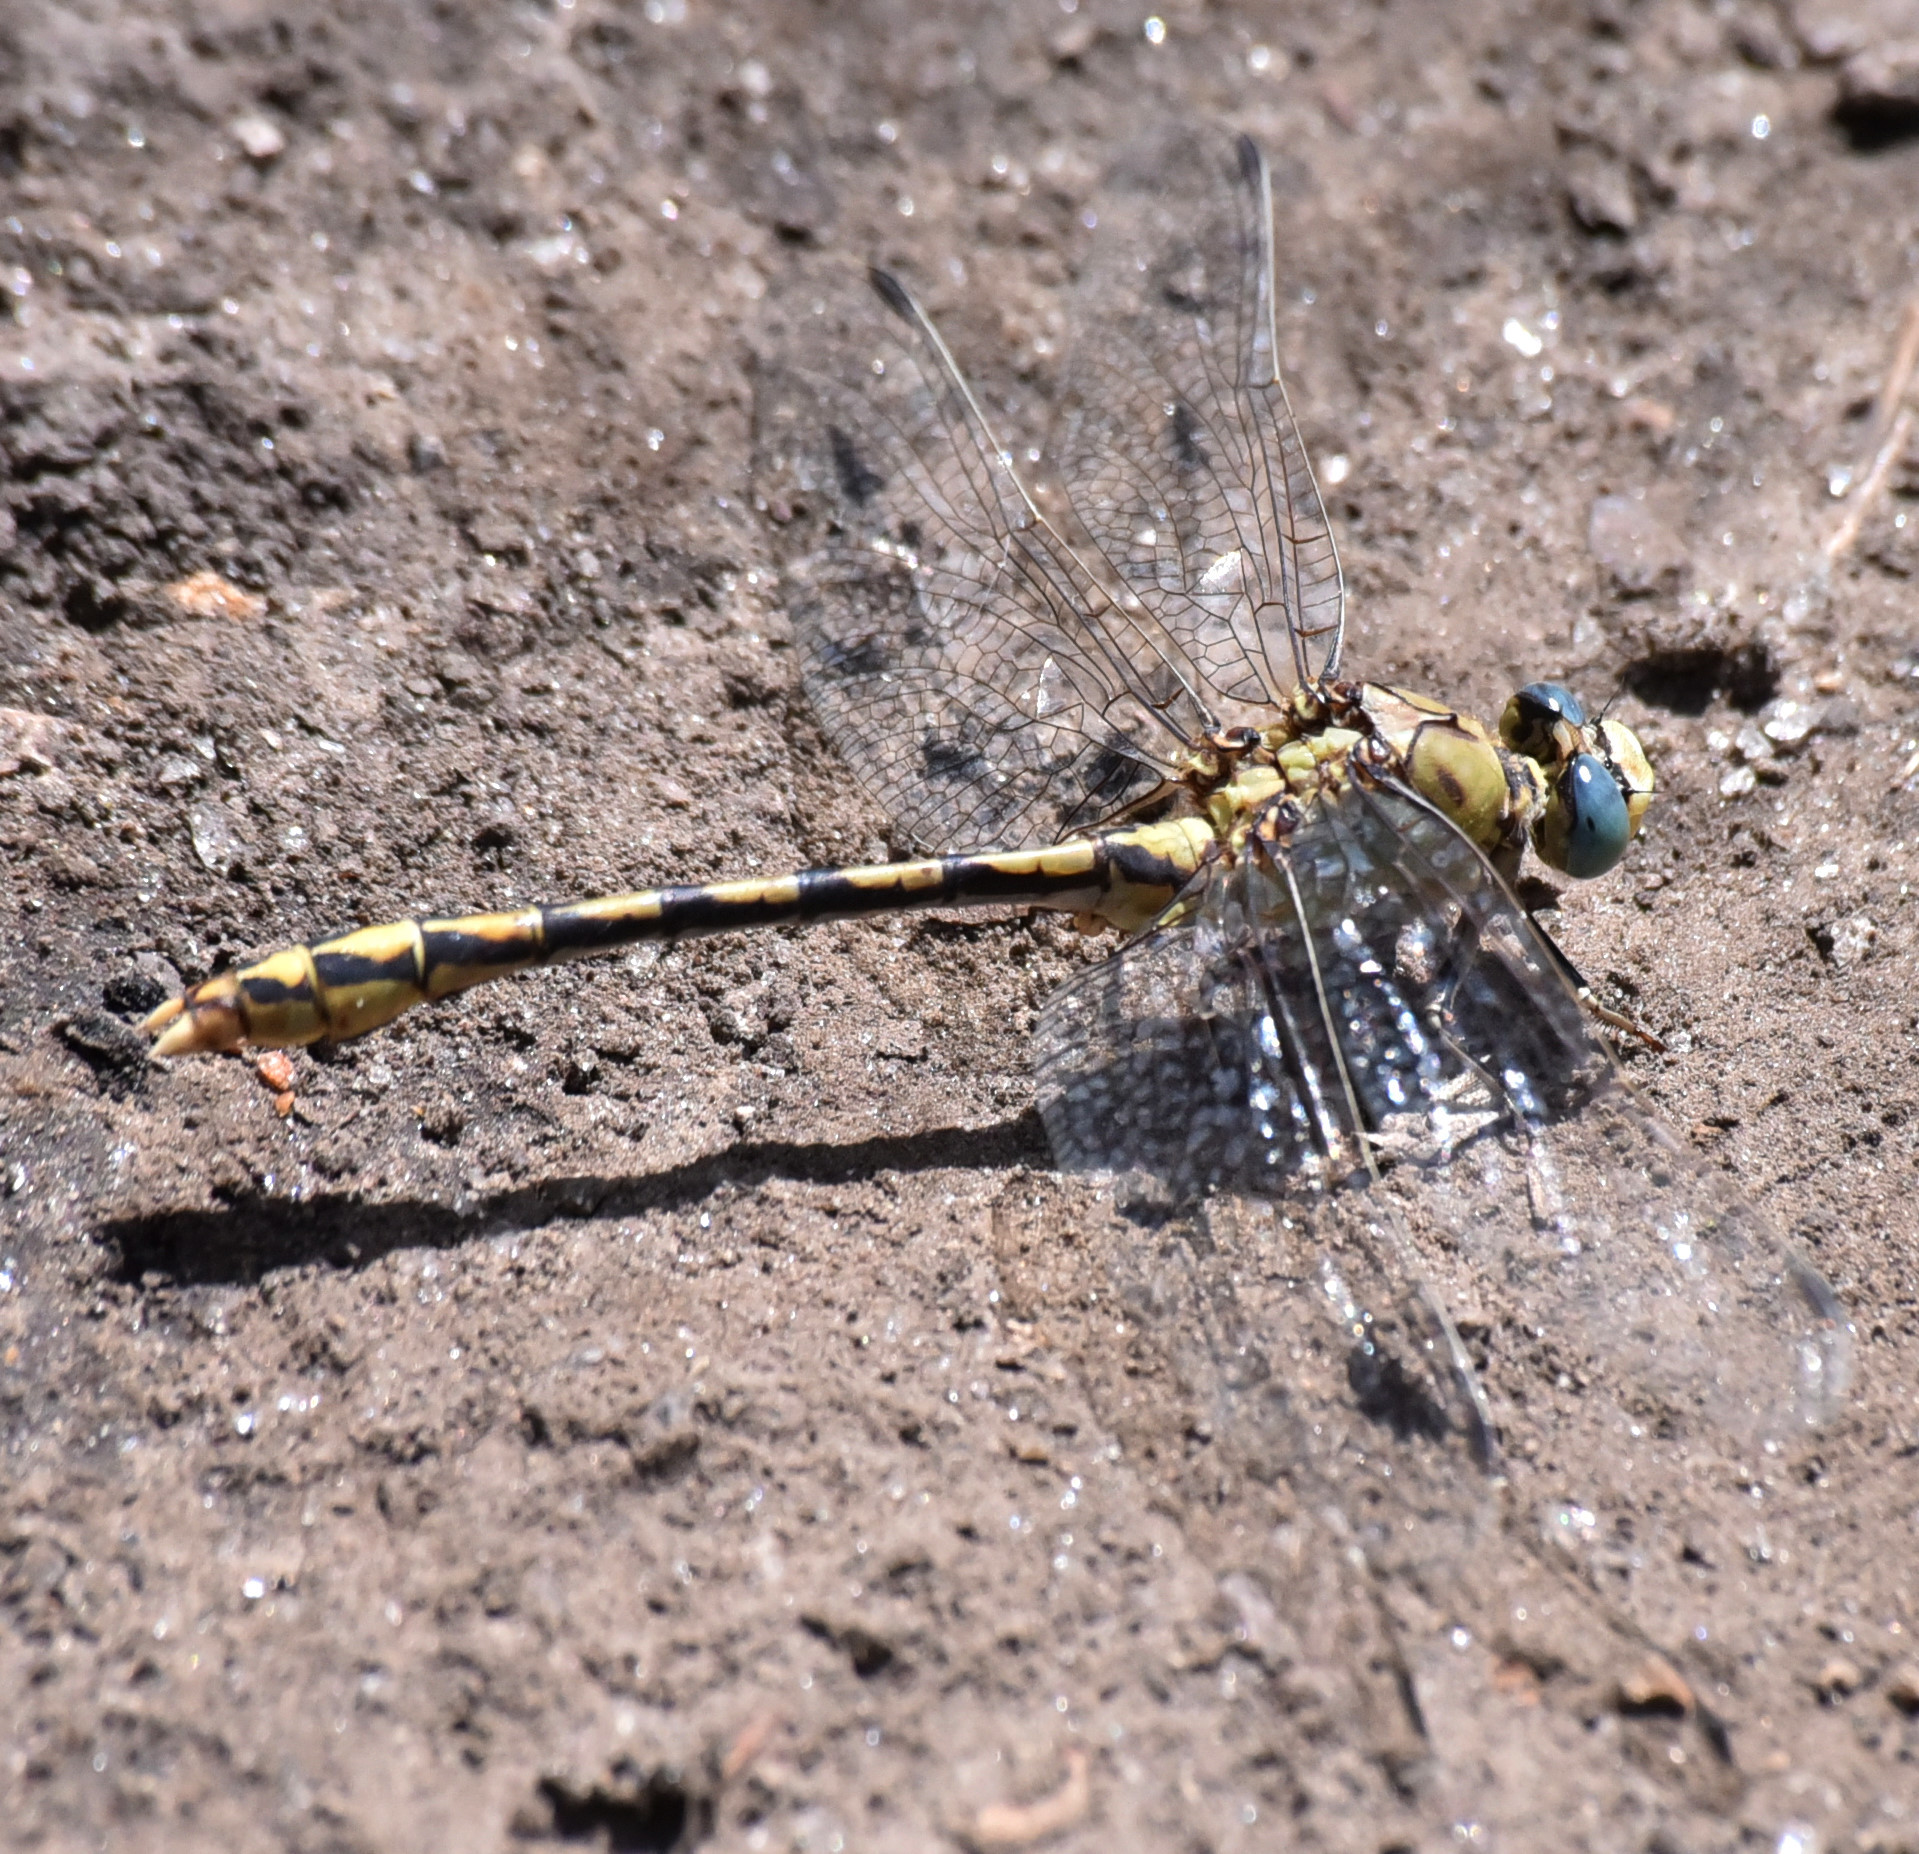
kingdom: Animalia
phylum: Arthropoda
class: Insecta
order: Odonata
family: Gomphidae
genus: Ophiogomphus
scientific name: Ophiogomphus severus
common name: Pale snaketail
